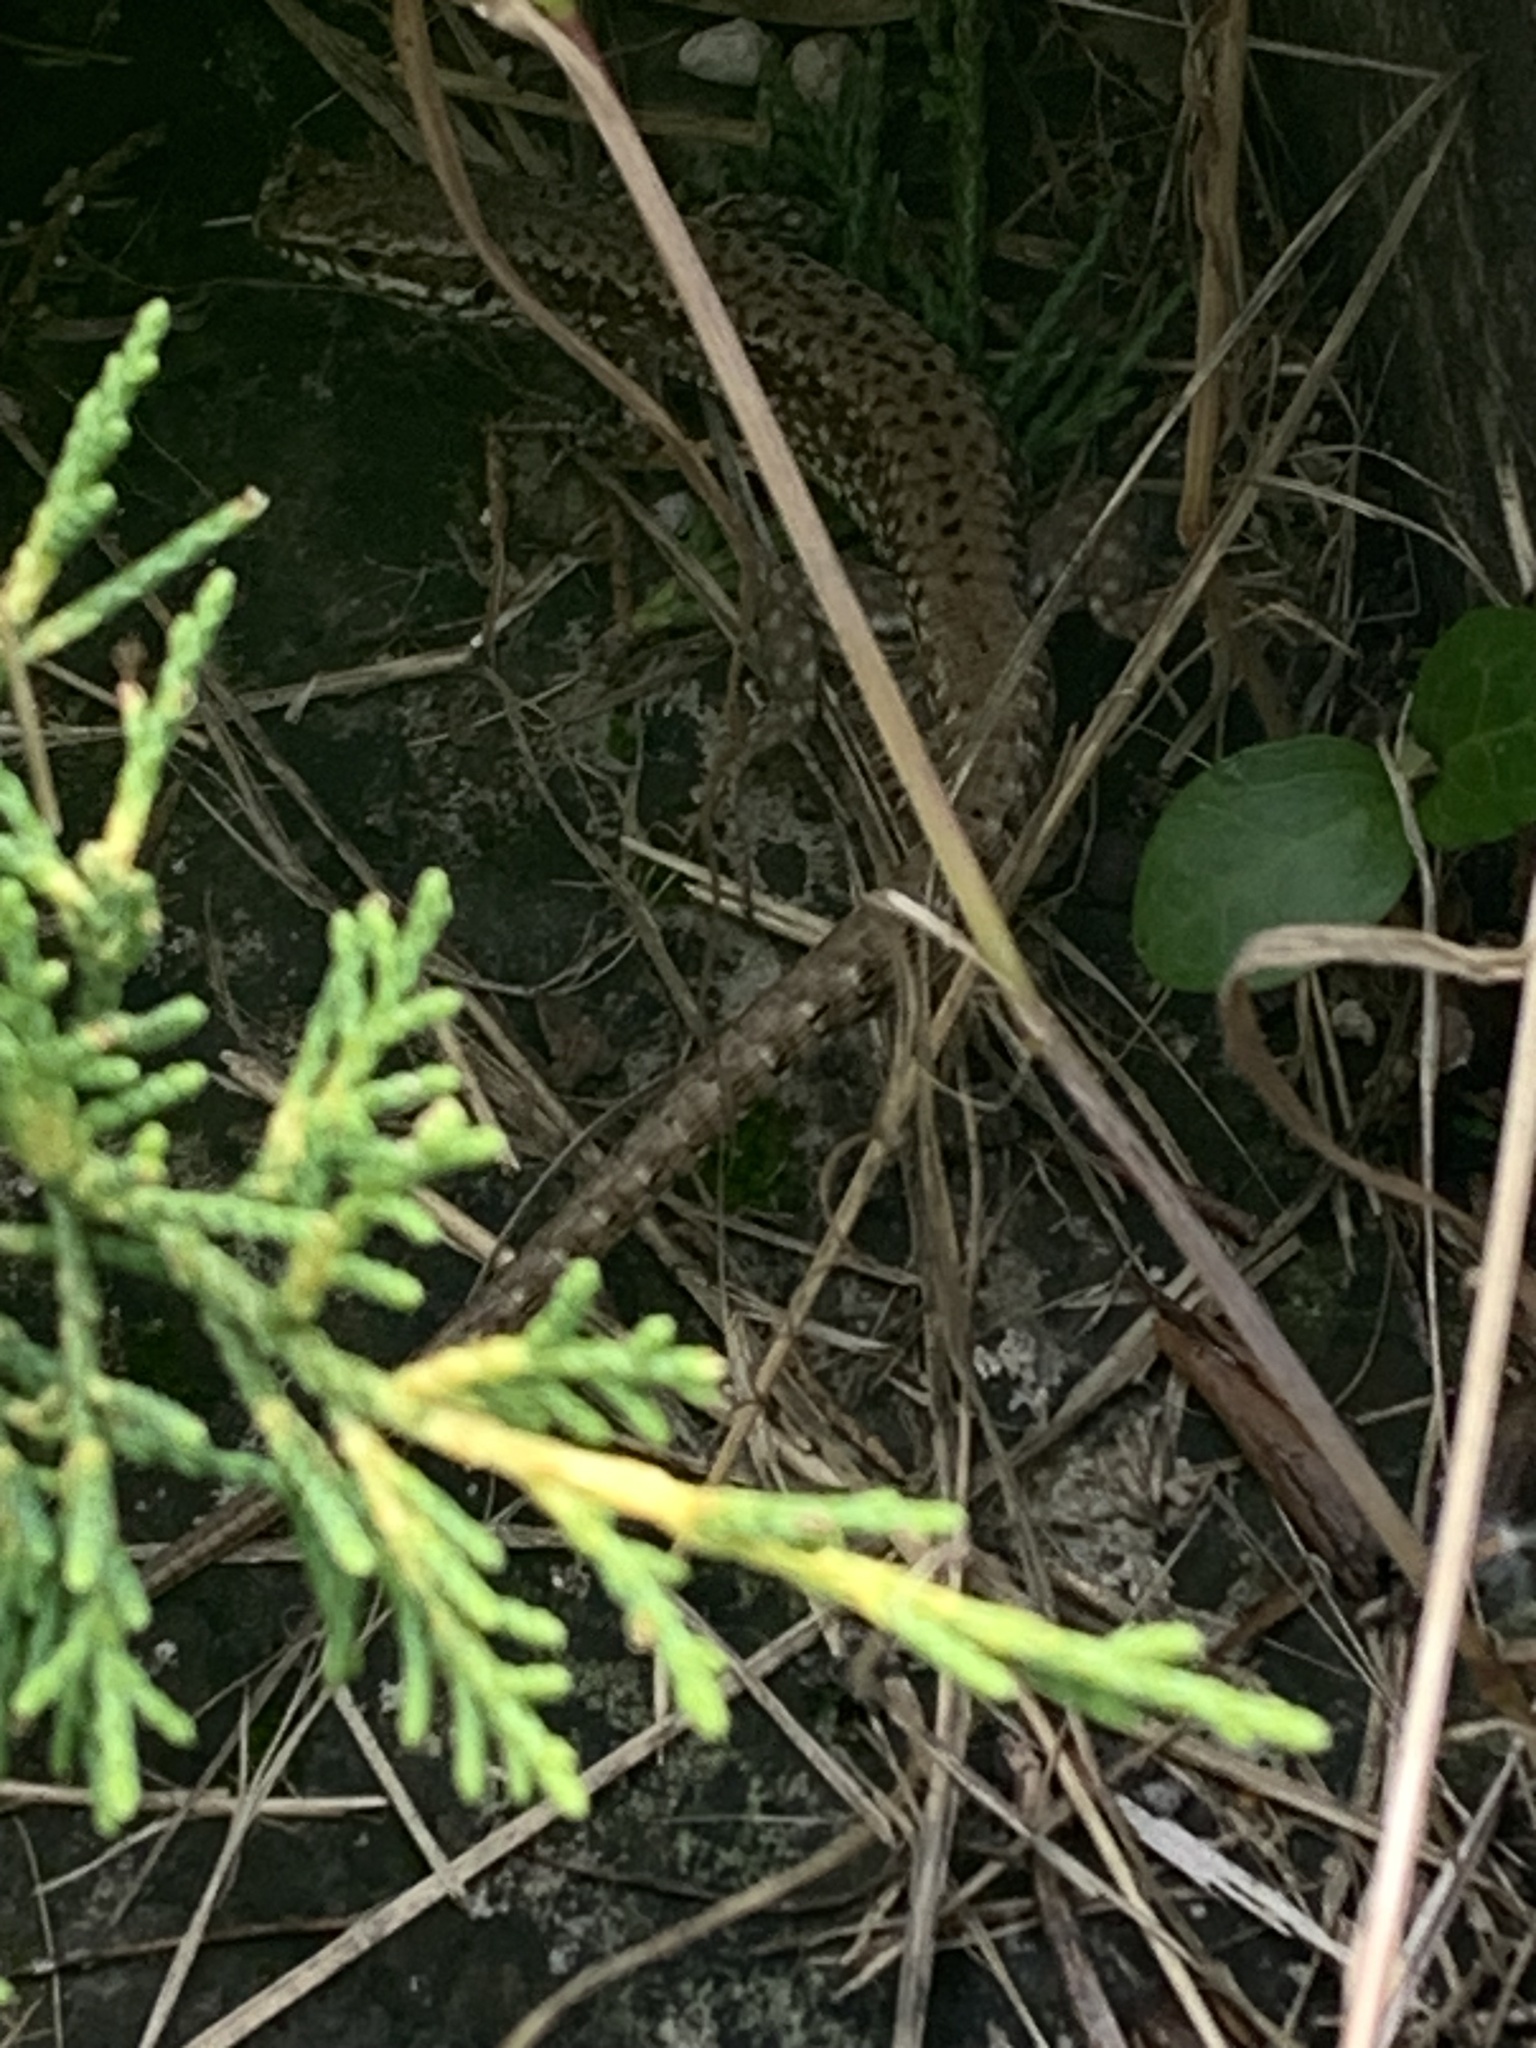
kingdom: Animalia
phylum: Chordata
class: Squamata
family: Lacertidae
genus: Podarcis
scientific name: Podarcis muralis
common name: Common wall lizard
